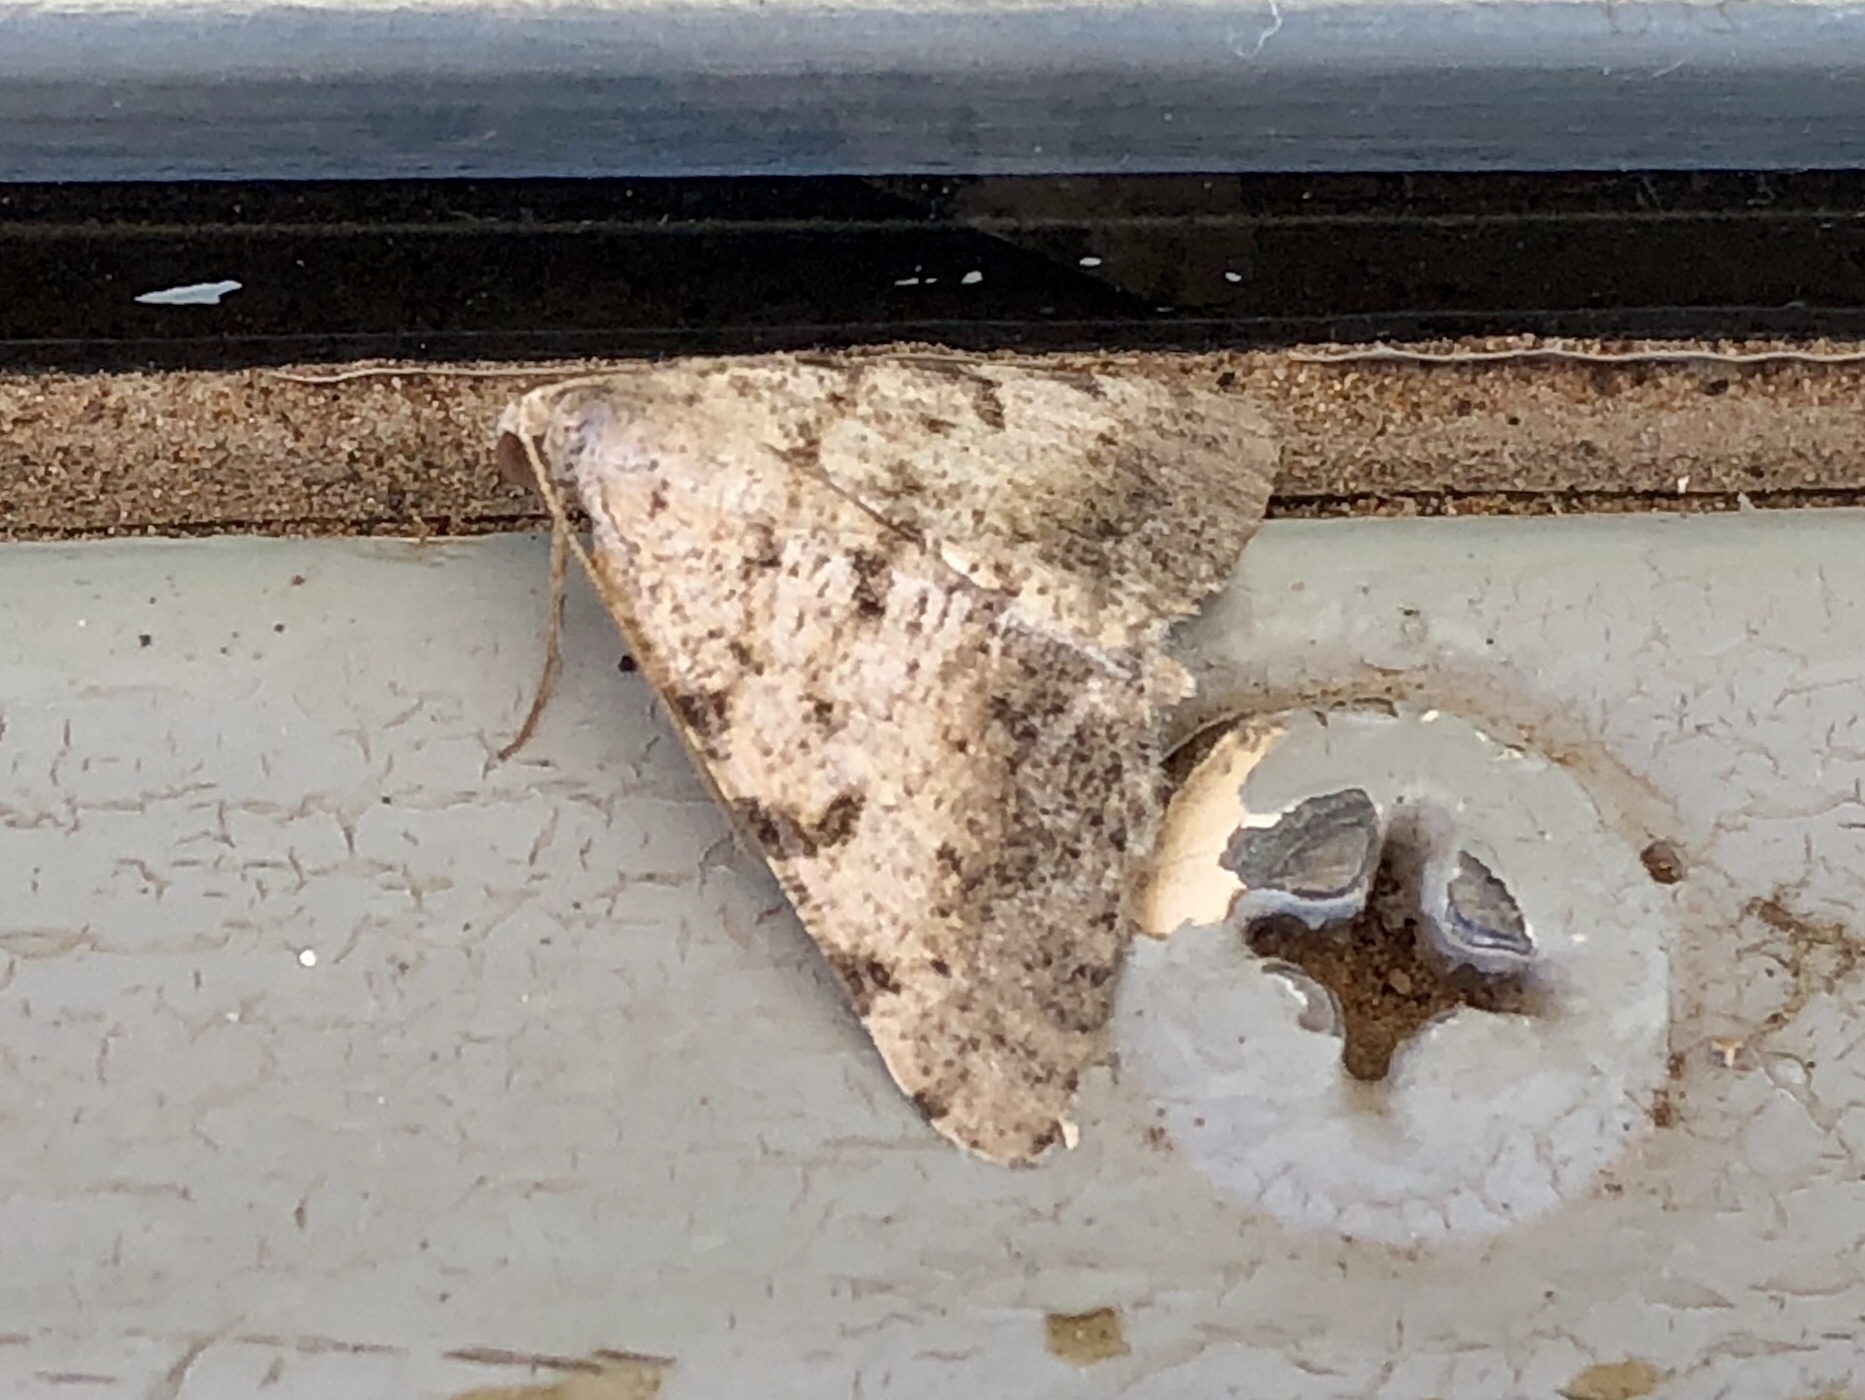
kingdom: Animalia
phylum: Arthropoda
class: Insecta
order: Lepidoptera
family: Geometridae
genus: Digrammia
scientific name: Digrammia colorata
